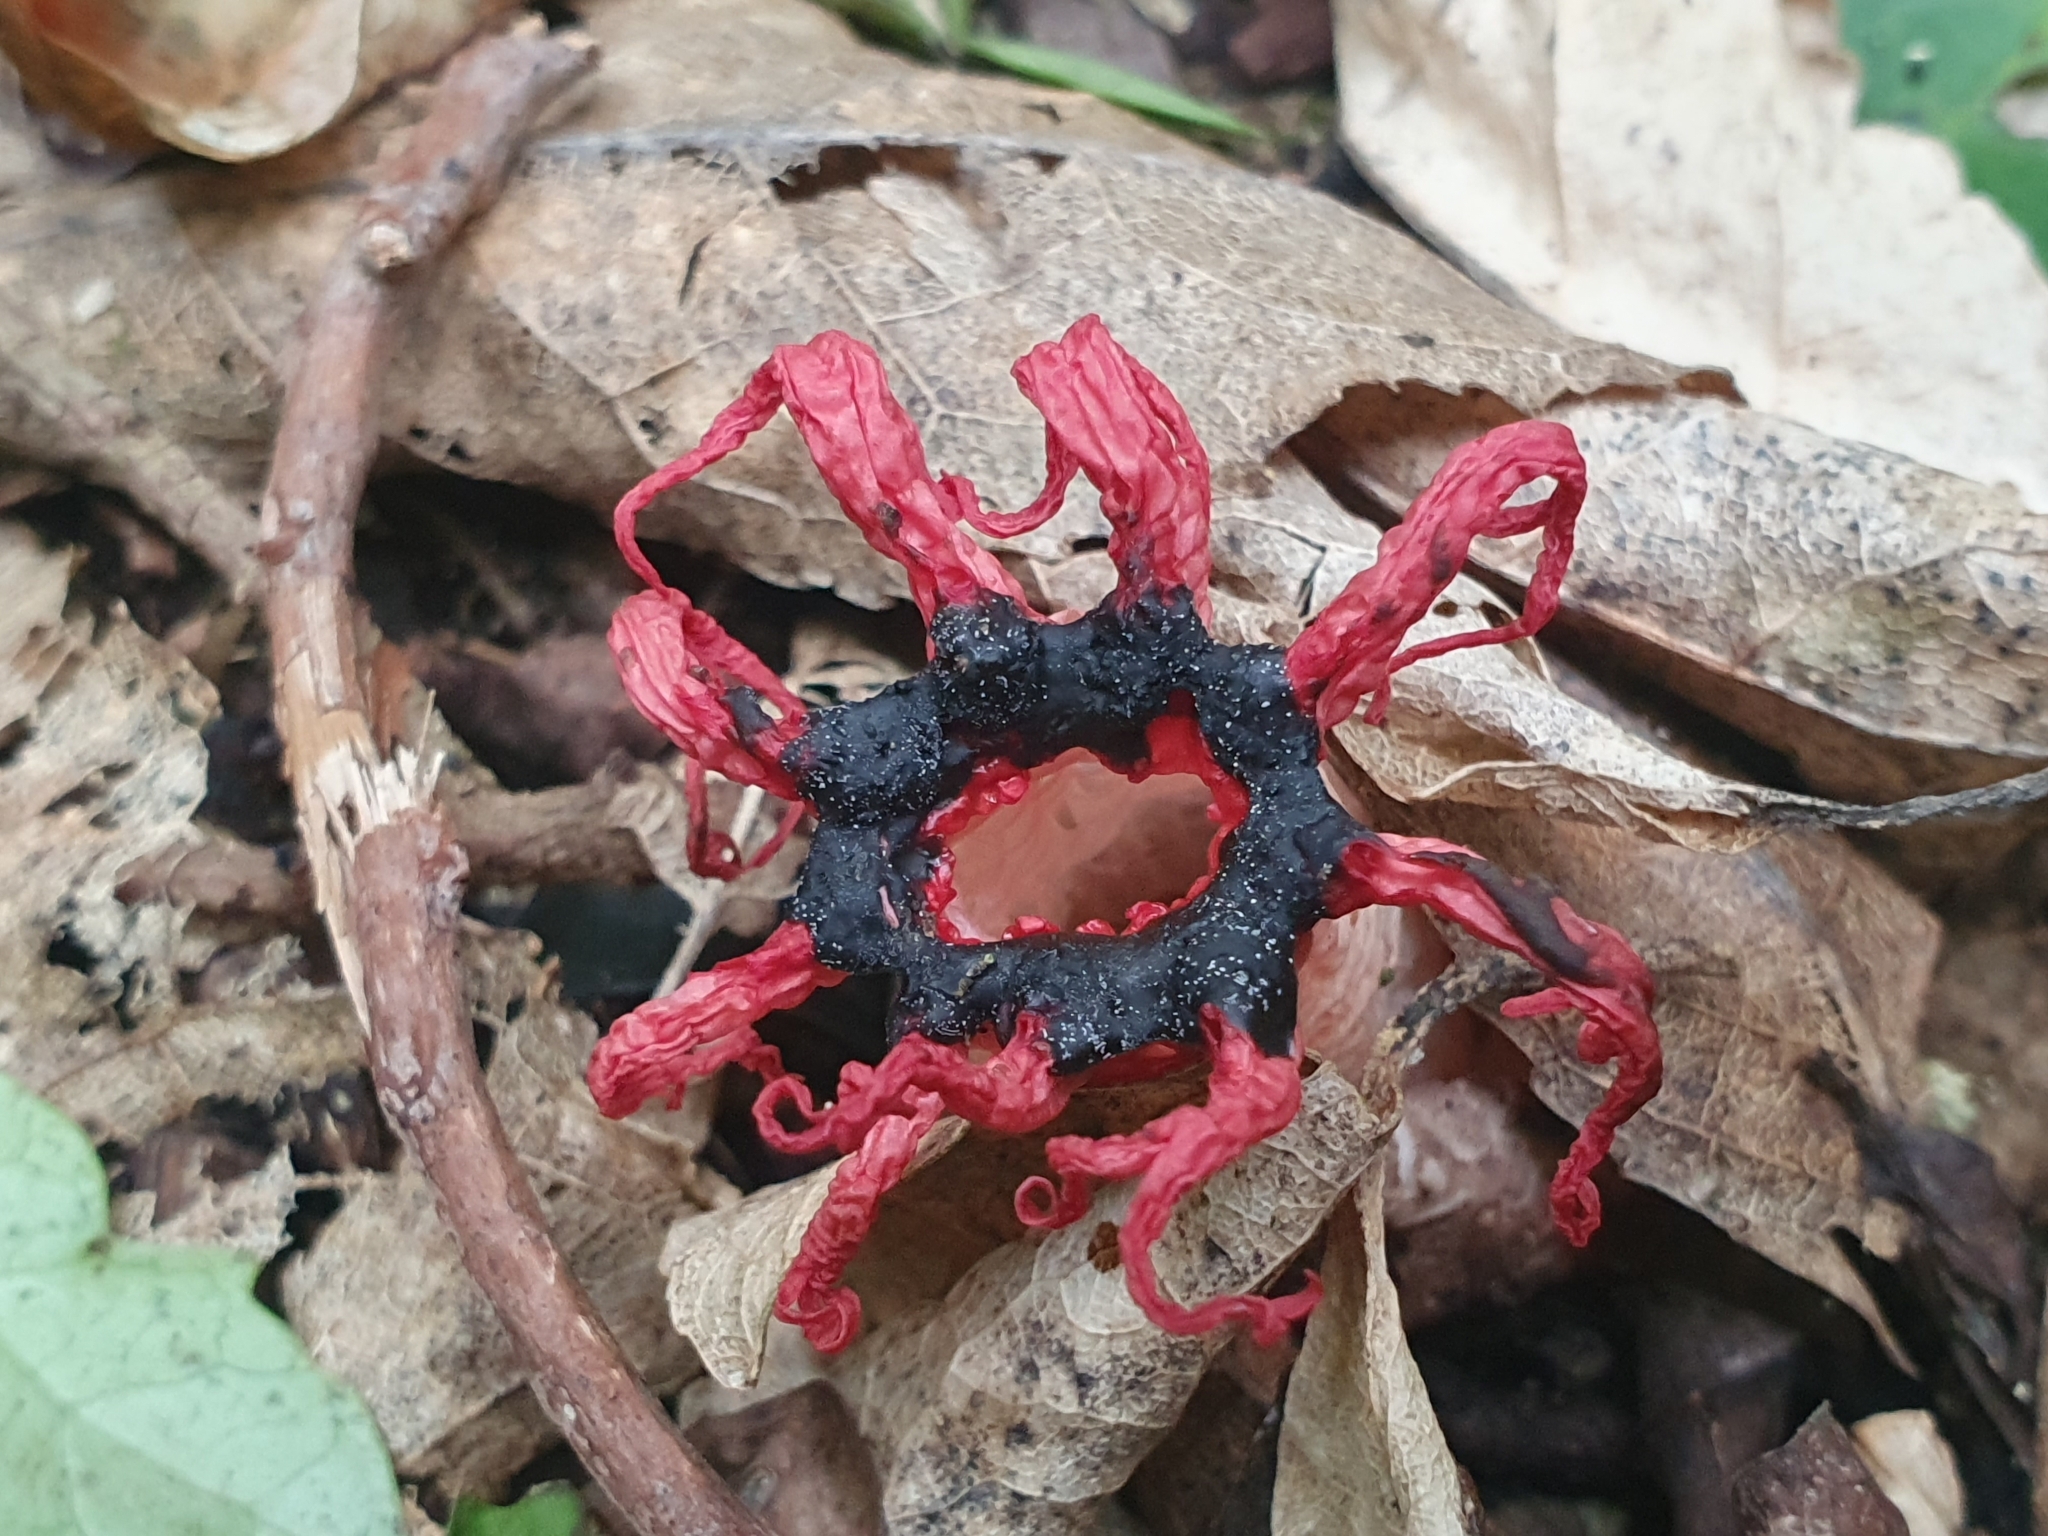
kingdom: Fungi
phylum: Basidiomycota
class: Agaricomycetes
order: Phallales
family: Phallaceae
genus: Aseroe
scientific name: Aseroe rubra
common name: Starfish fungus
